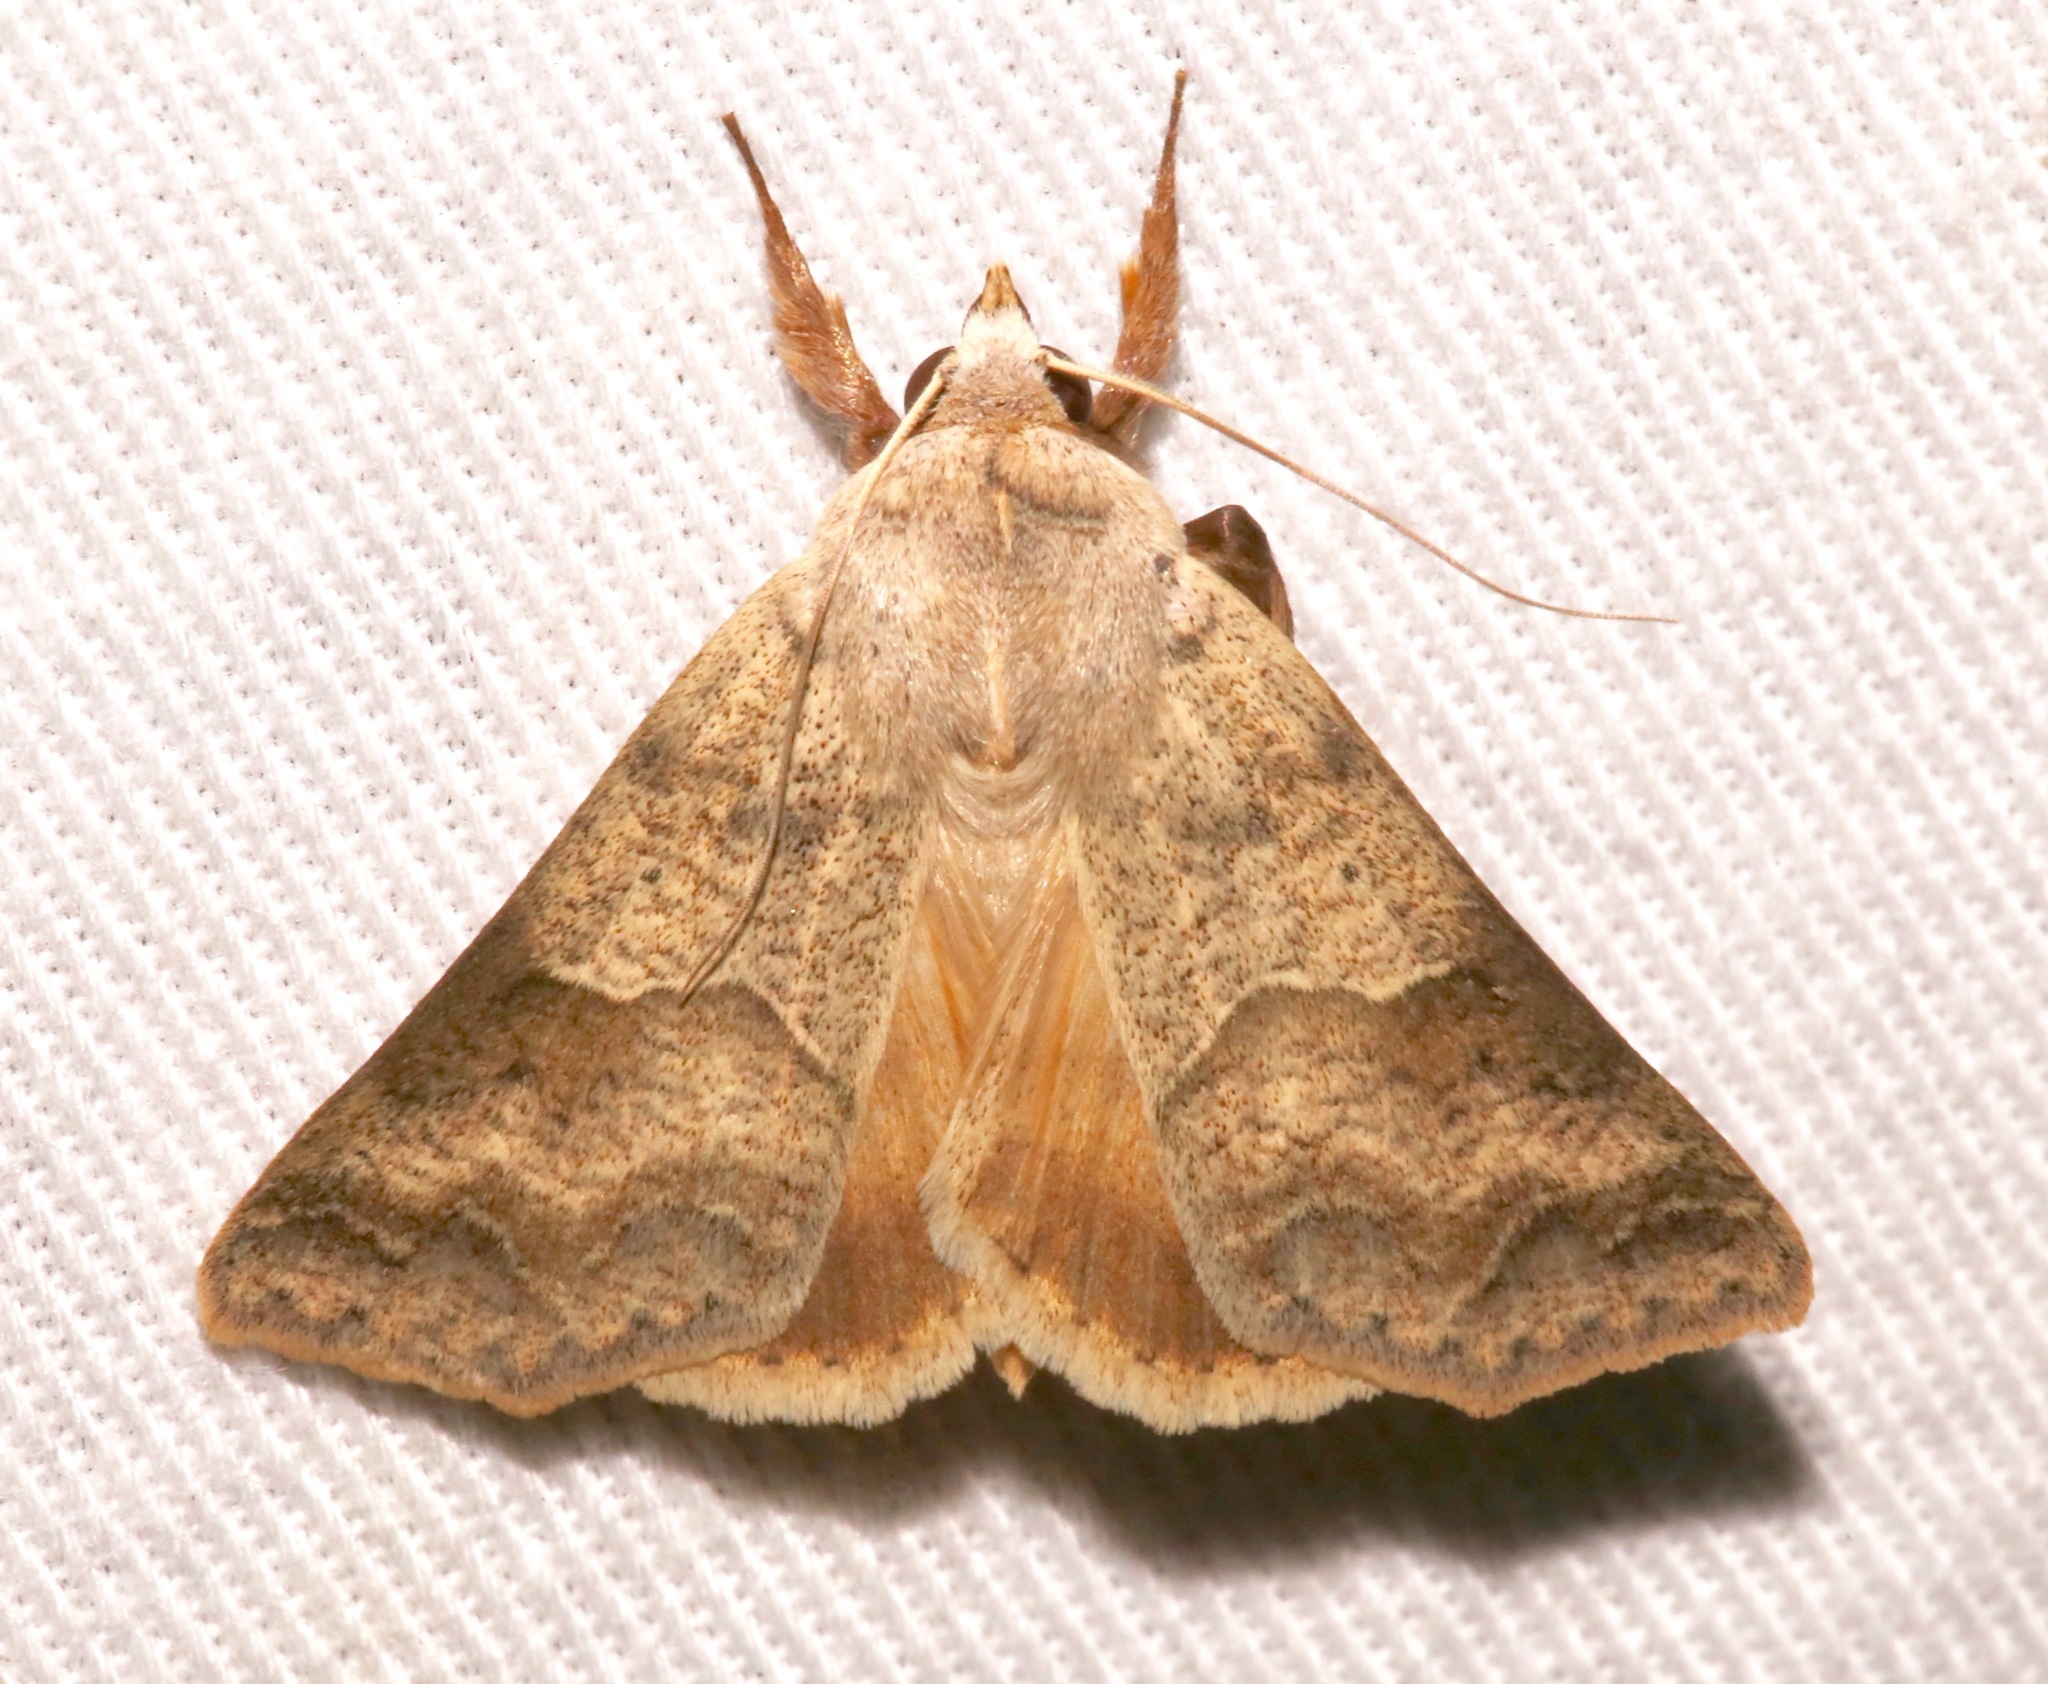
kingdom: Animalia
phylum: Arthropoda
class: Insecta
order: Lepidoptera
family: Erebidae
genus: Obrima
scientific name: Obrima rinconada
